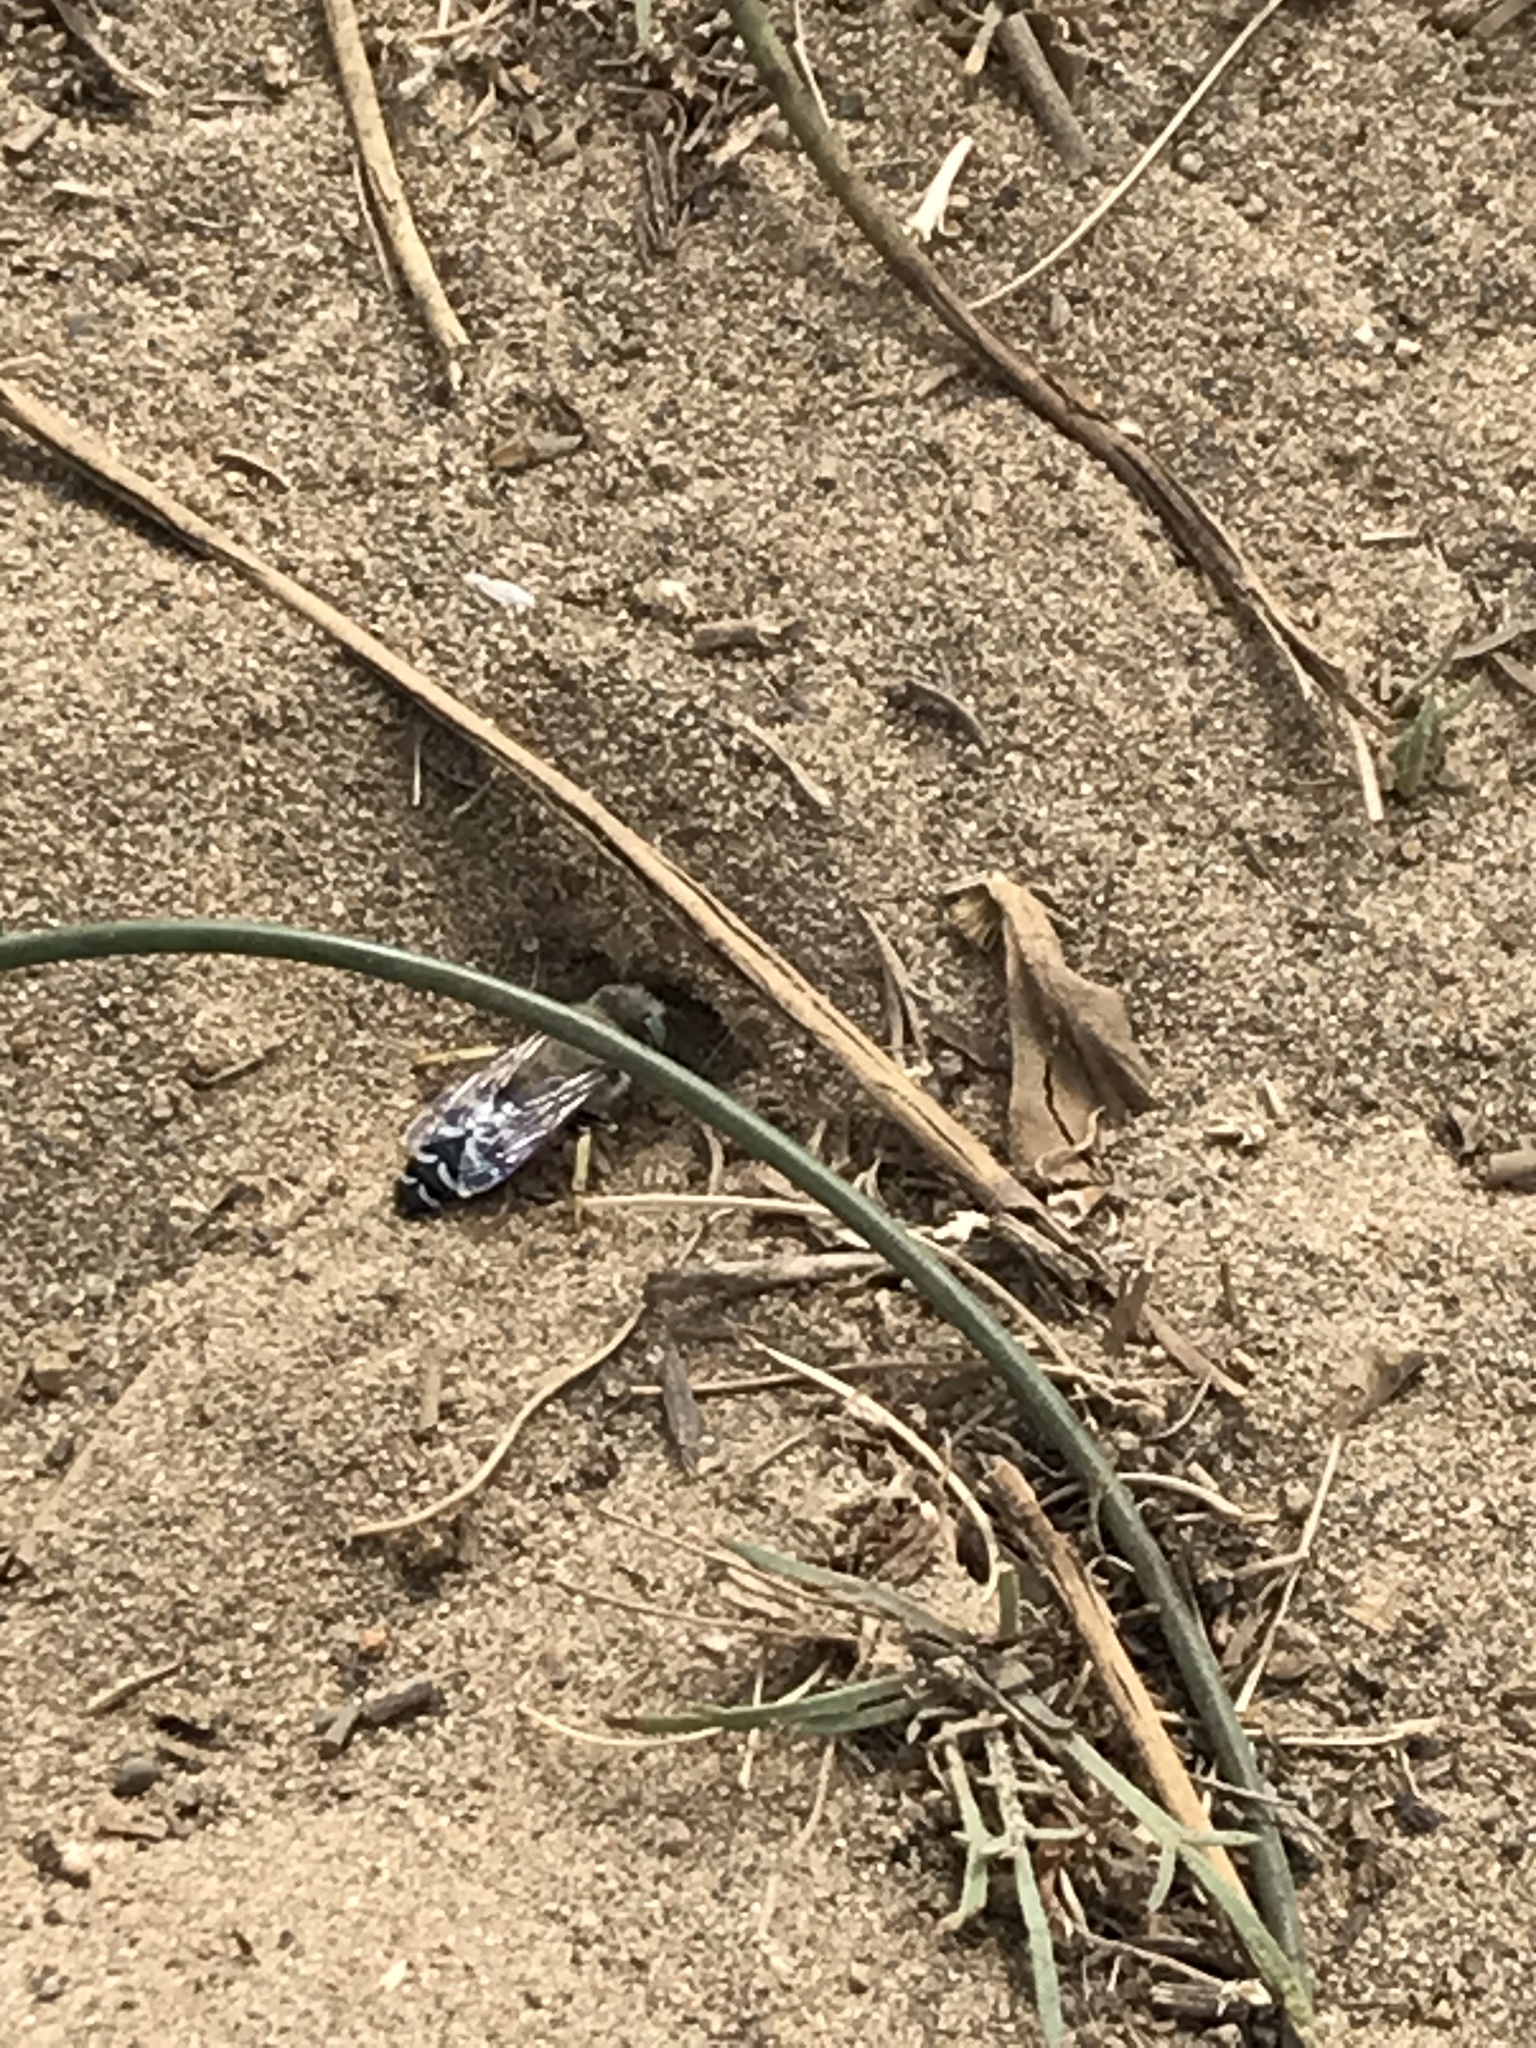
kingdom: Animalia
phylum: Arthropoda
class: Insecta
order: Hymenoptera
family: Crabronidae
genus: Bembix
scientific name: Bembix americana
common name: American sand wasp
